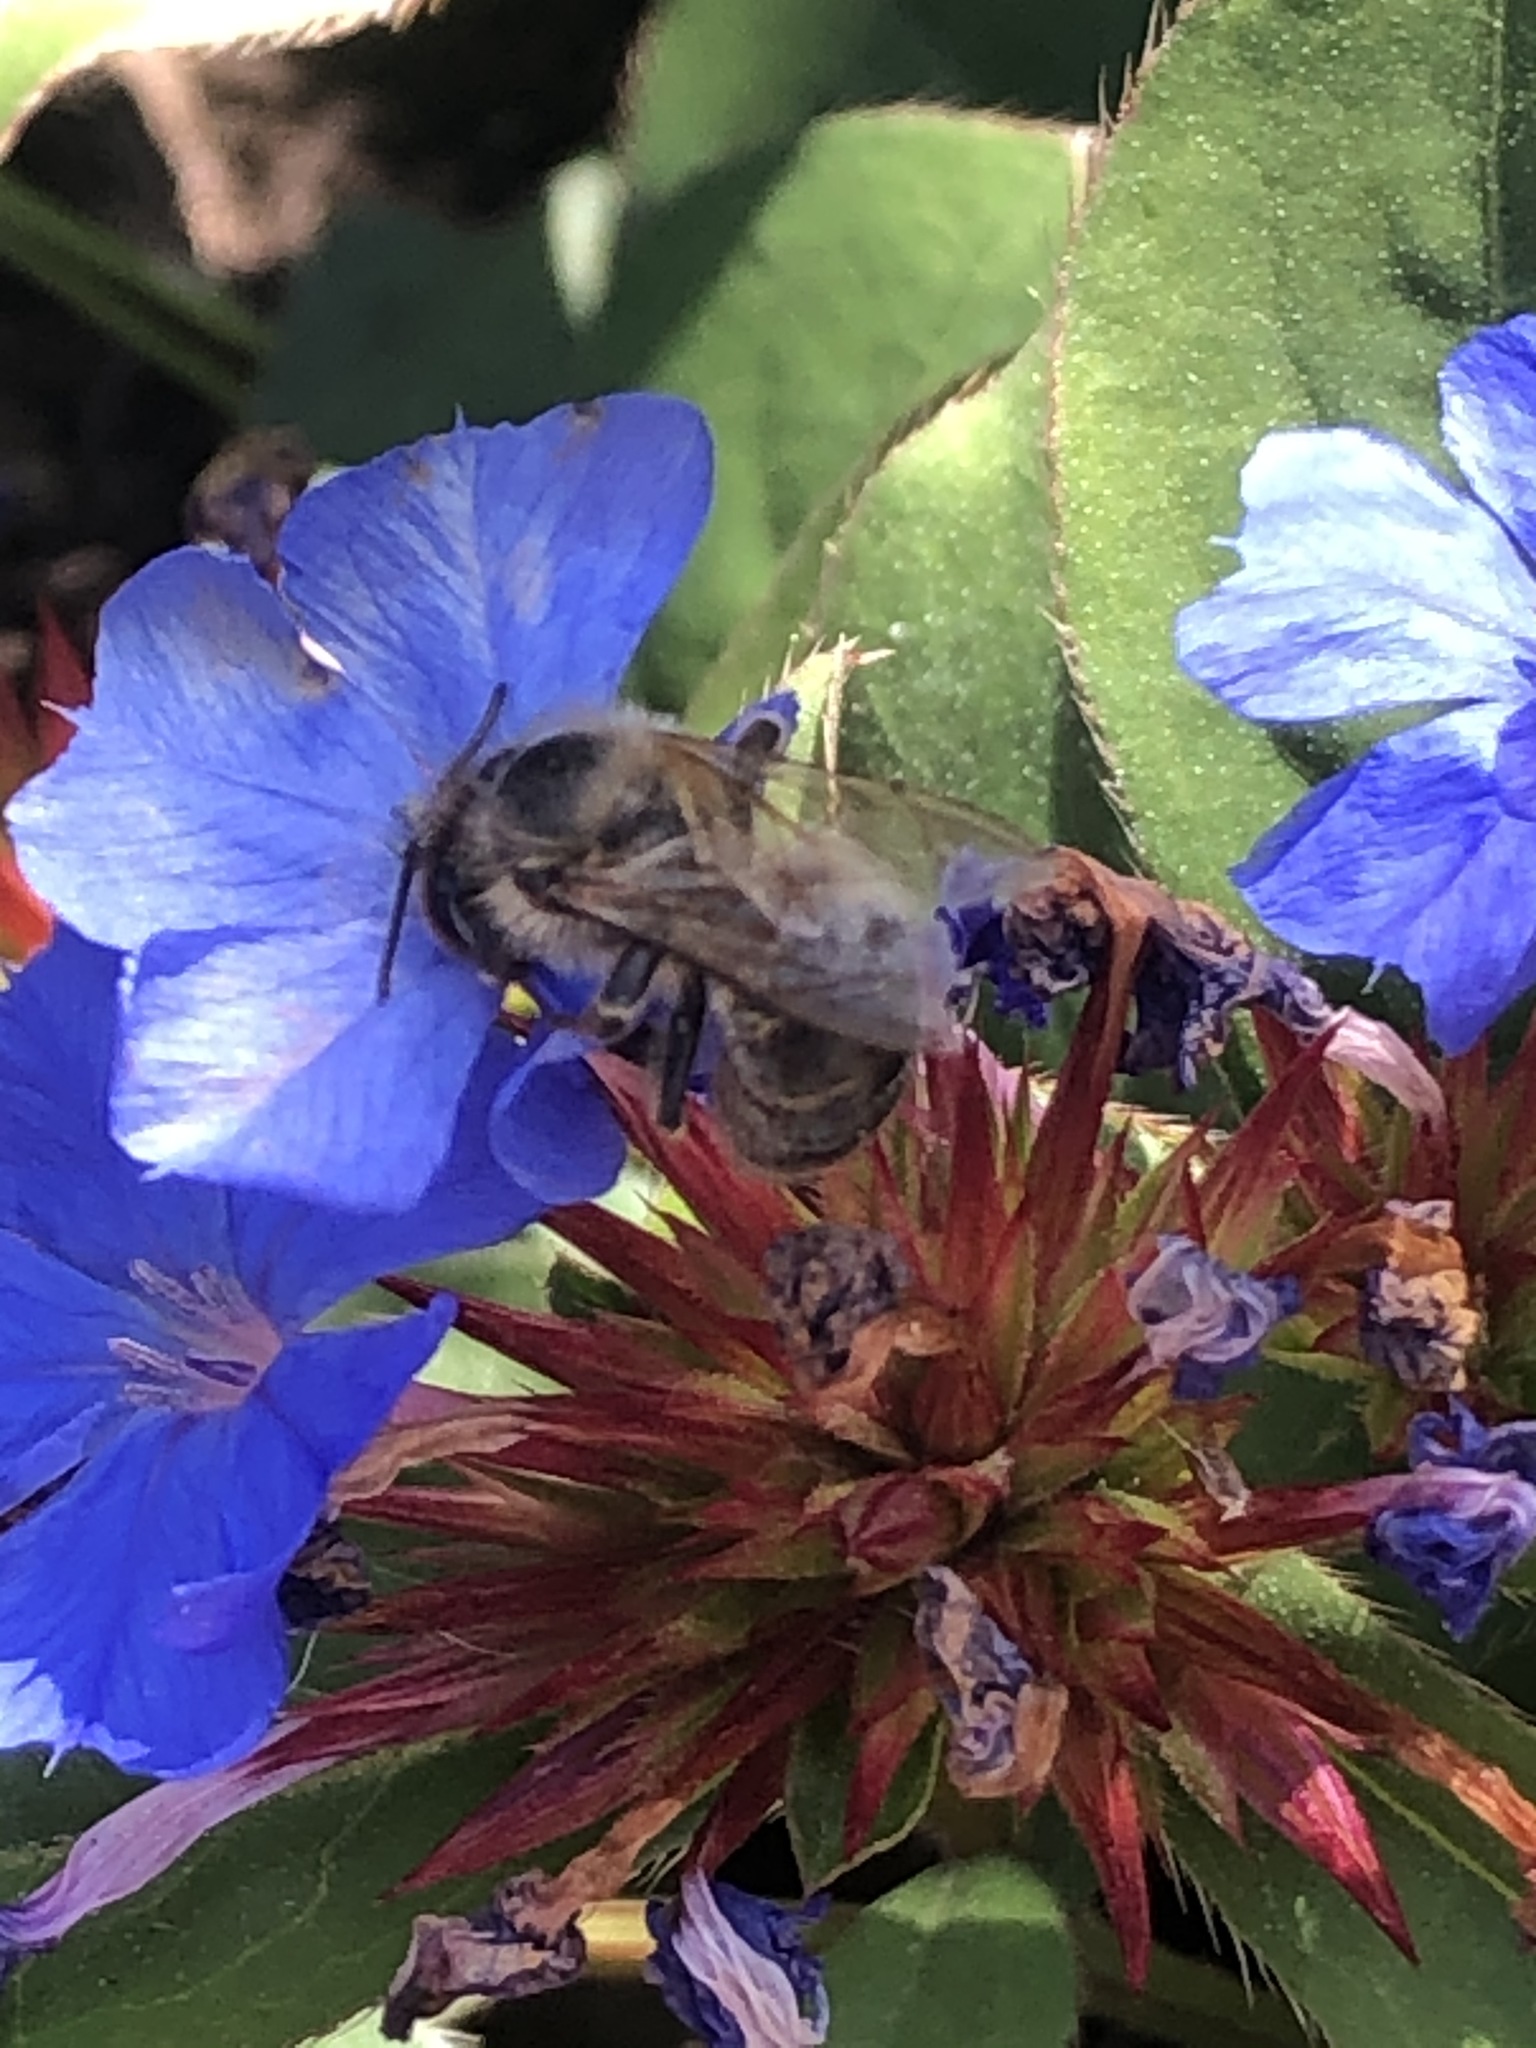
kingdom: Animalia
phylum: Arthropoda
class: Insecta
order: Hymenoptera
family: Apidae
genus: Apis
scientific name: Apis mellifera
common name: Honey bee
